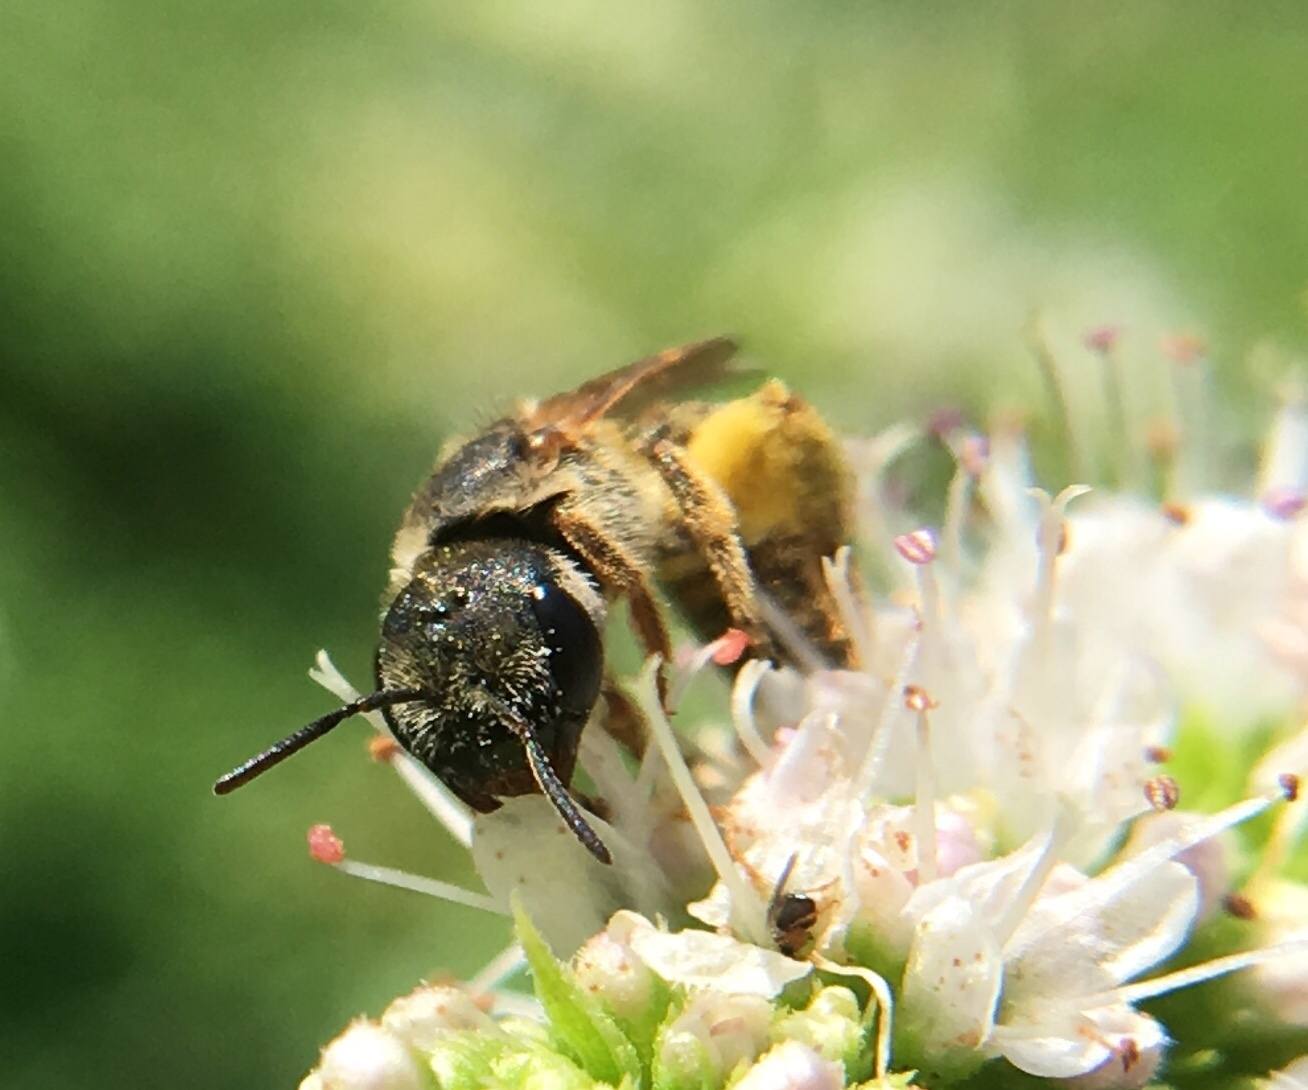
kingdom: Animalia
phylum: Arthropoda
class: Insecta
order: Hymenoptera
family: Halictidae
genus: Halictus
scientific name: Halictus ligatus
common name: Ligated furrow bee
